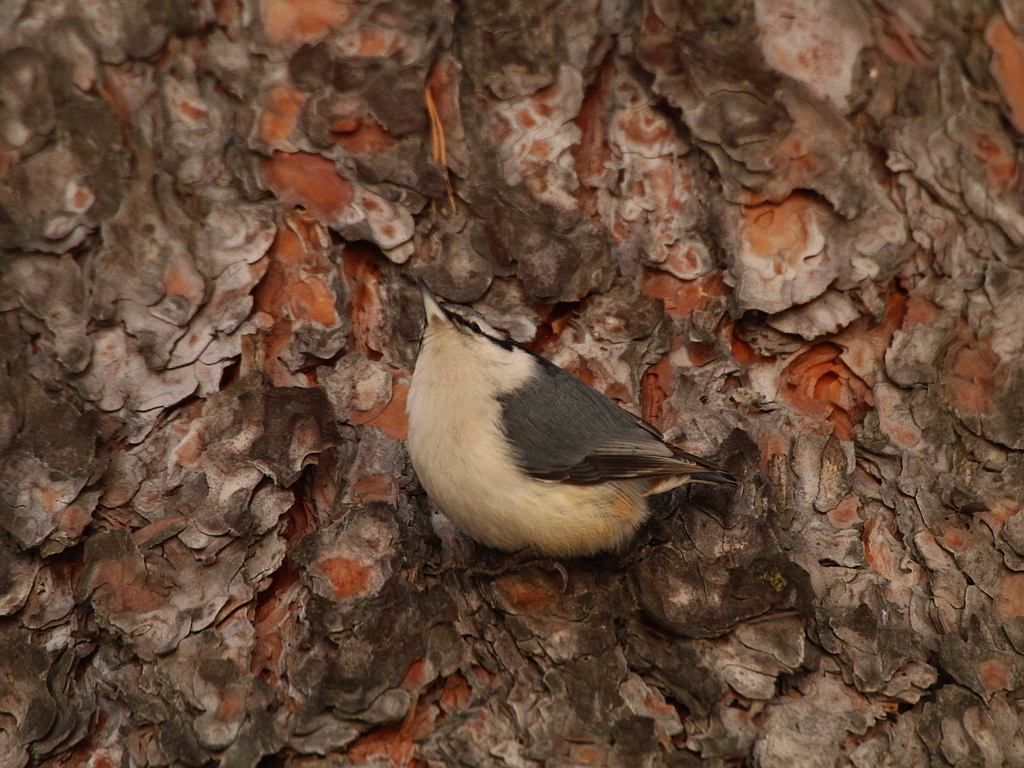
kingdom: Animalia
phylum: Chordata
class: Aves
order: Passeriformes
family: Sittidae
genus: Sitta
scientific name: Sitta europaea
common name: Eurasian nuthatch
